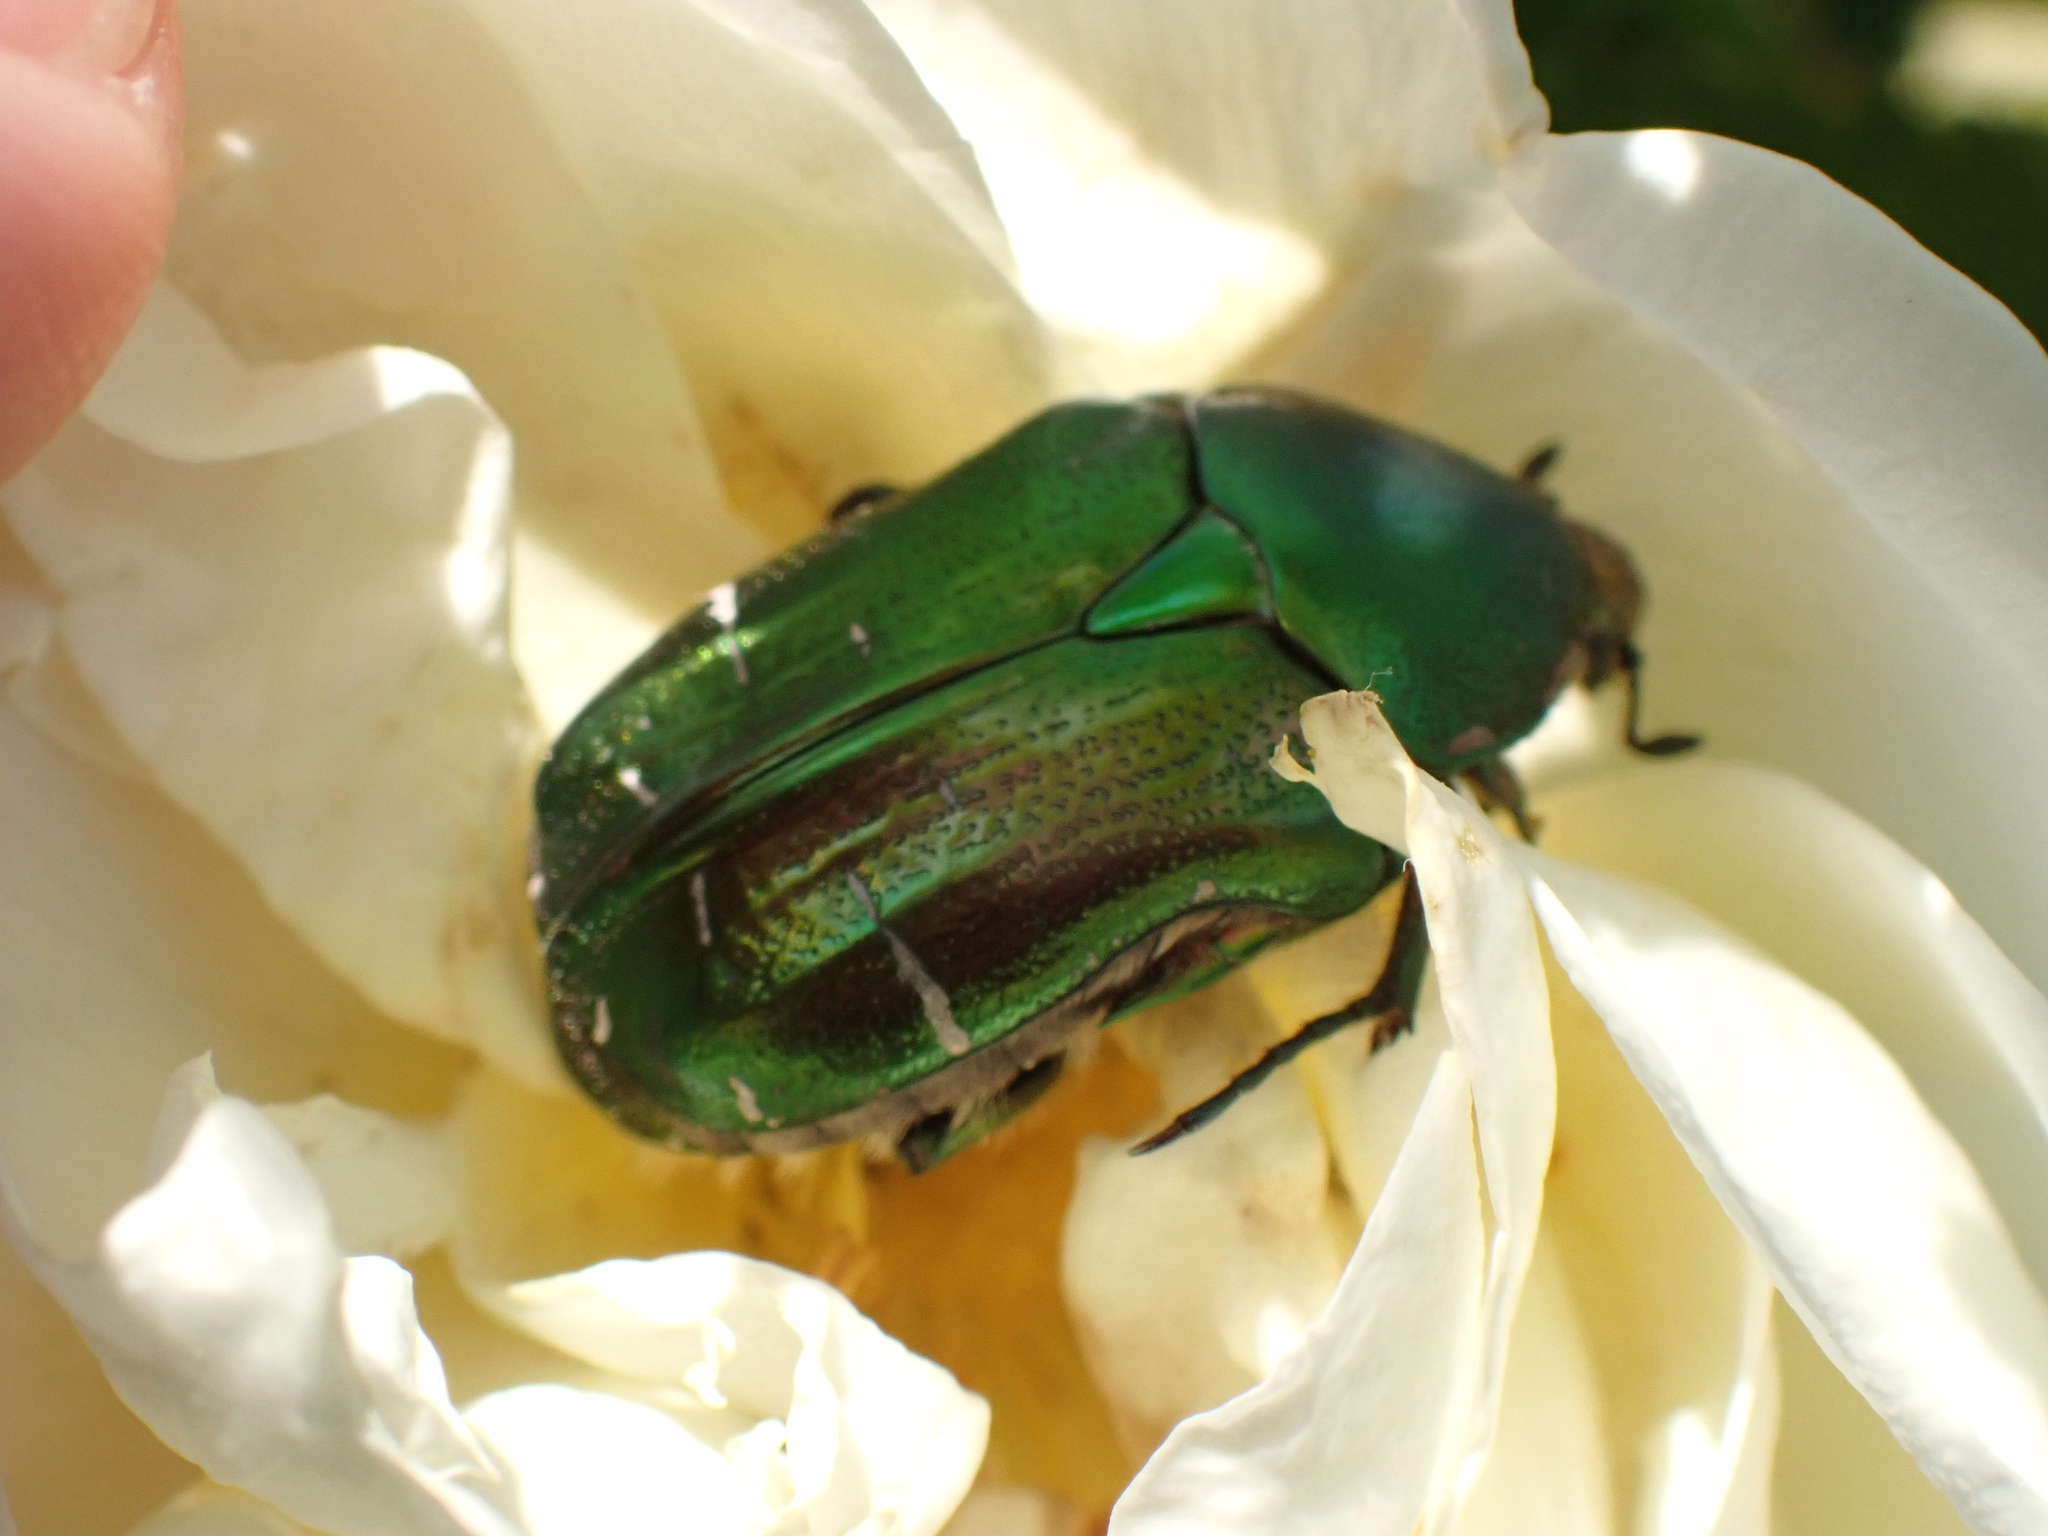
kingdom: Animalia
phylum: Arthropoda
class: Insecta
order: Coleoptera
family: Scarabaeidae
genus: Cetonia
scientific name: Cetonia aurata
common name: Rose chafer
